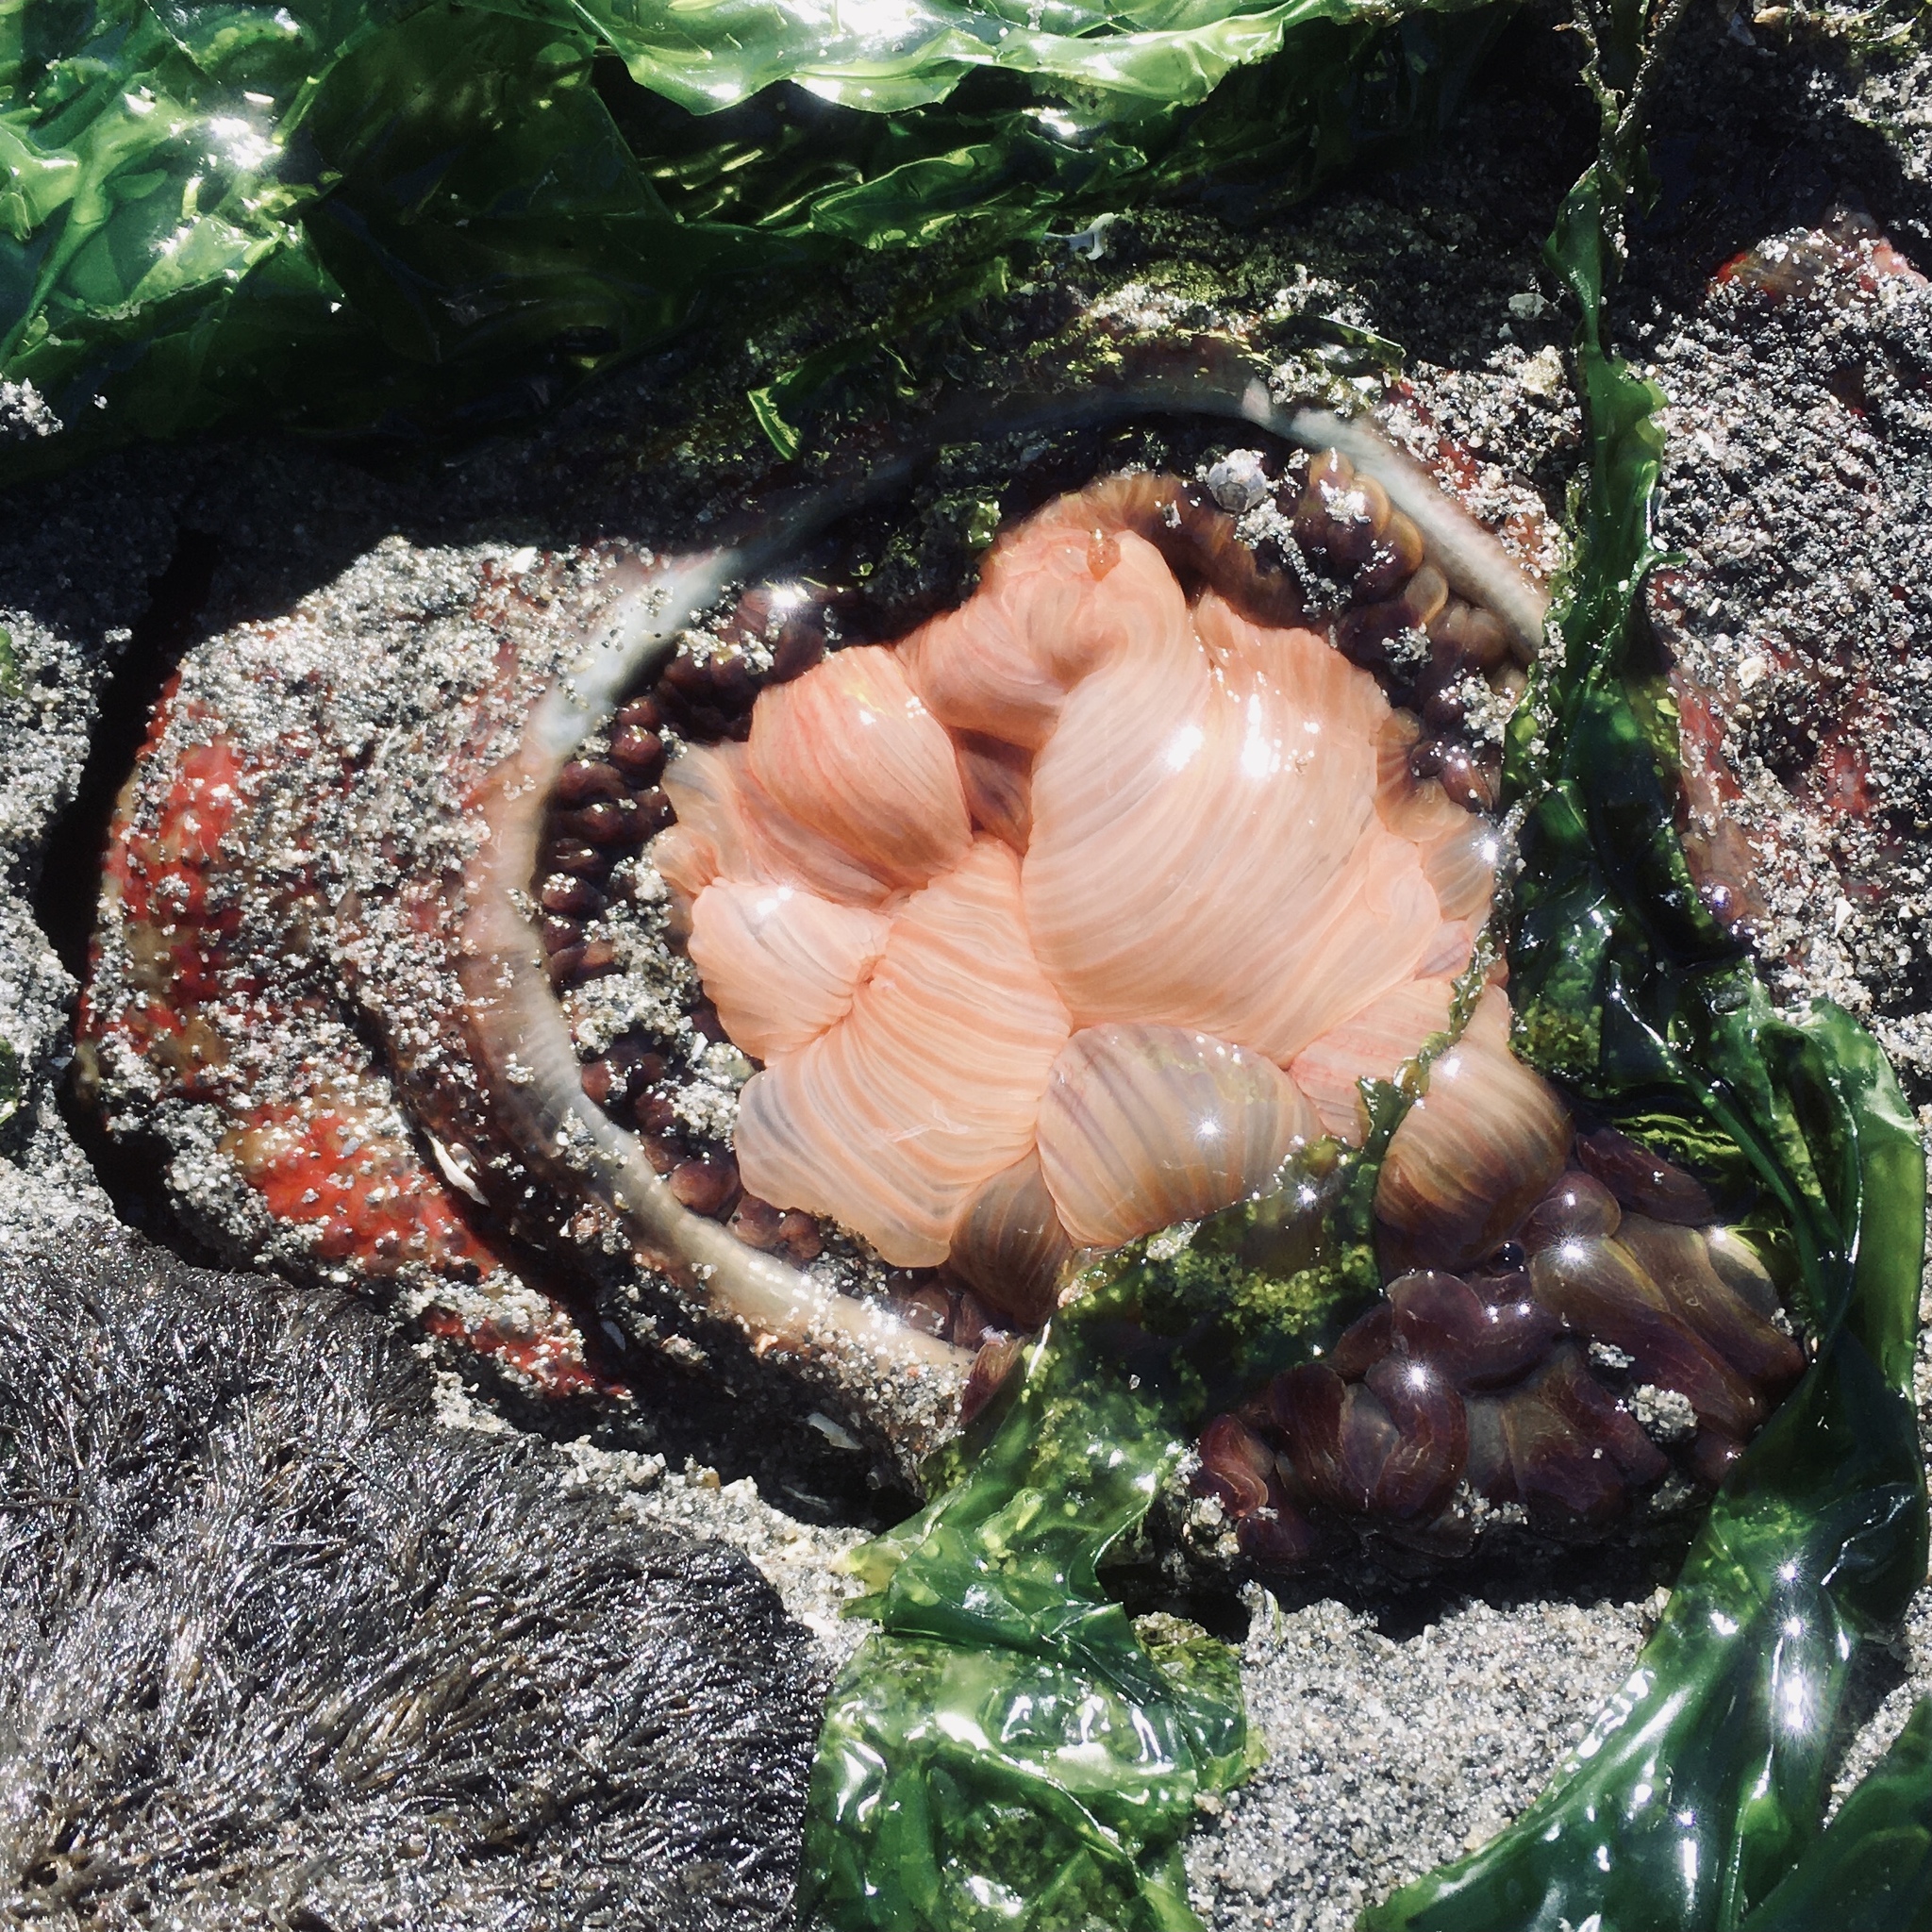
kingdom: Animalia
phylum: Cnidaria
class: Anthozoa
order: Actiniaria
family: Actiniidae
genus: Urticina
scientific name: Urticina grebelnyi
